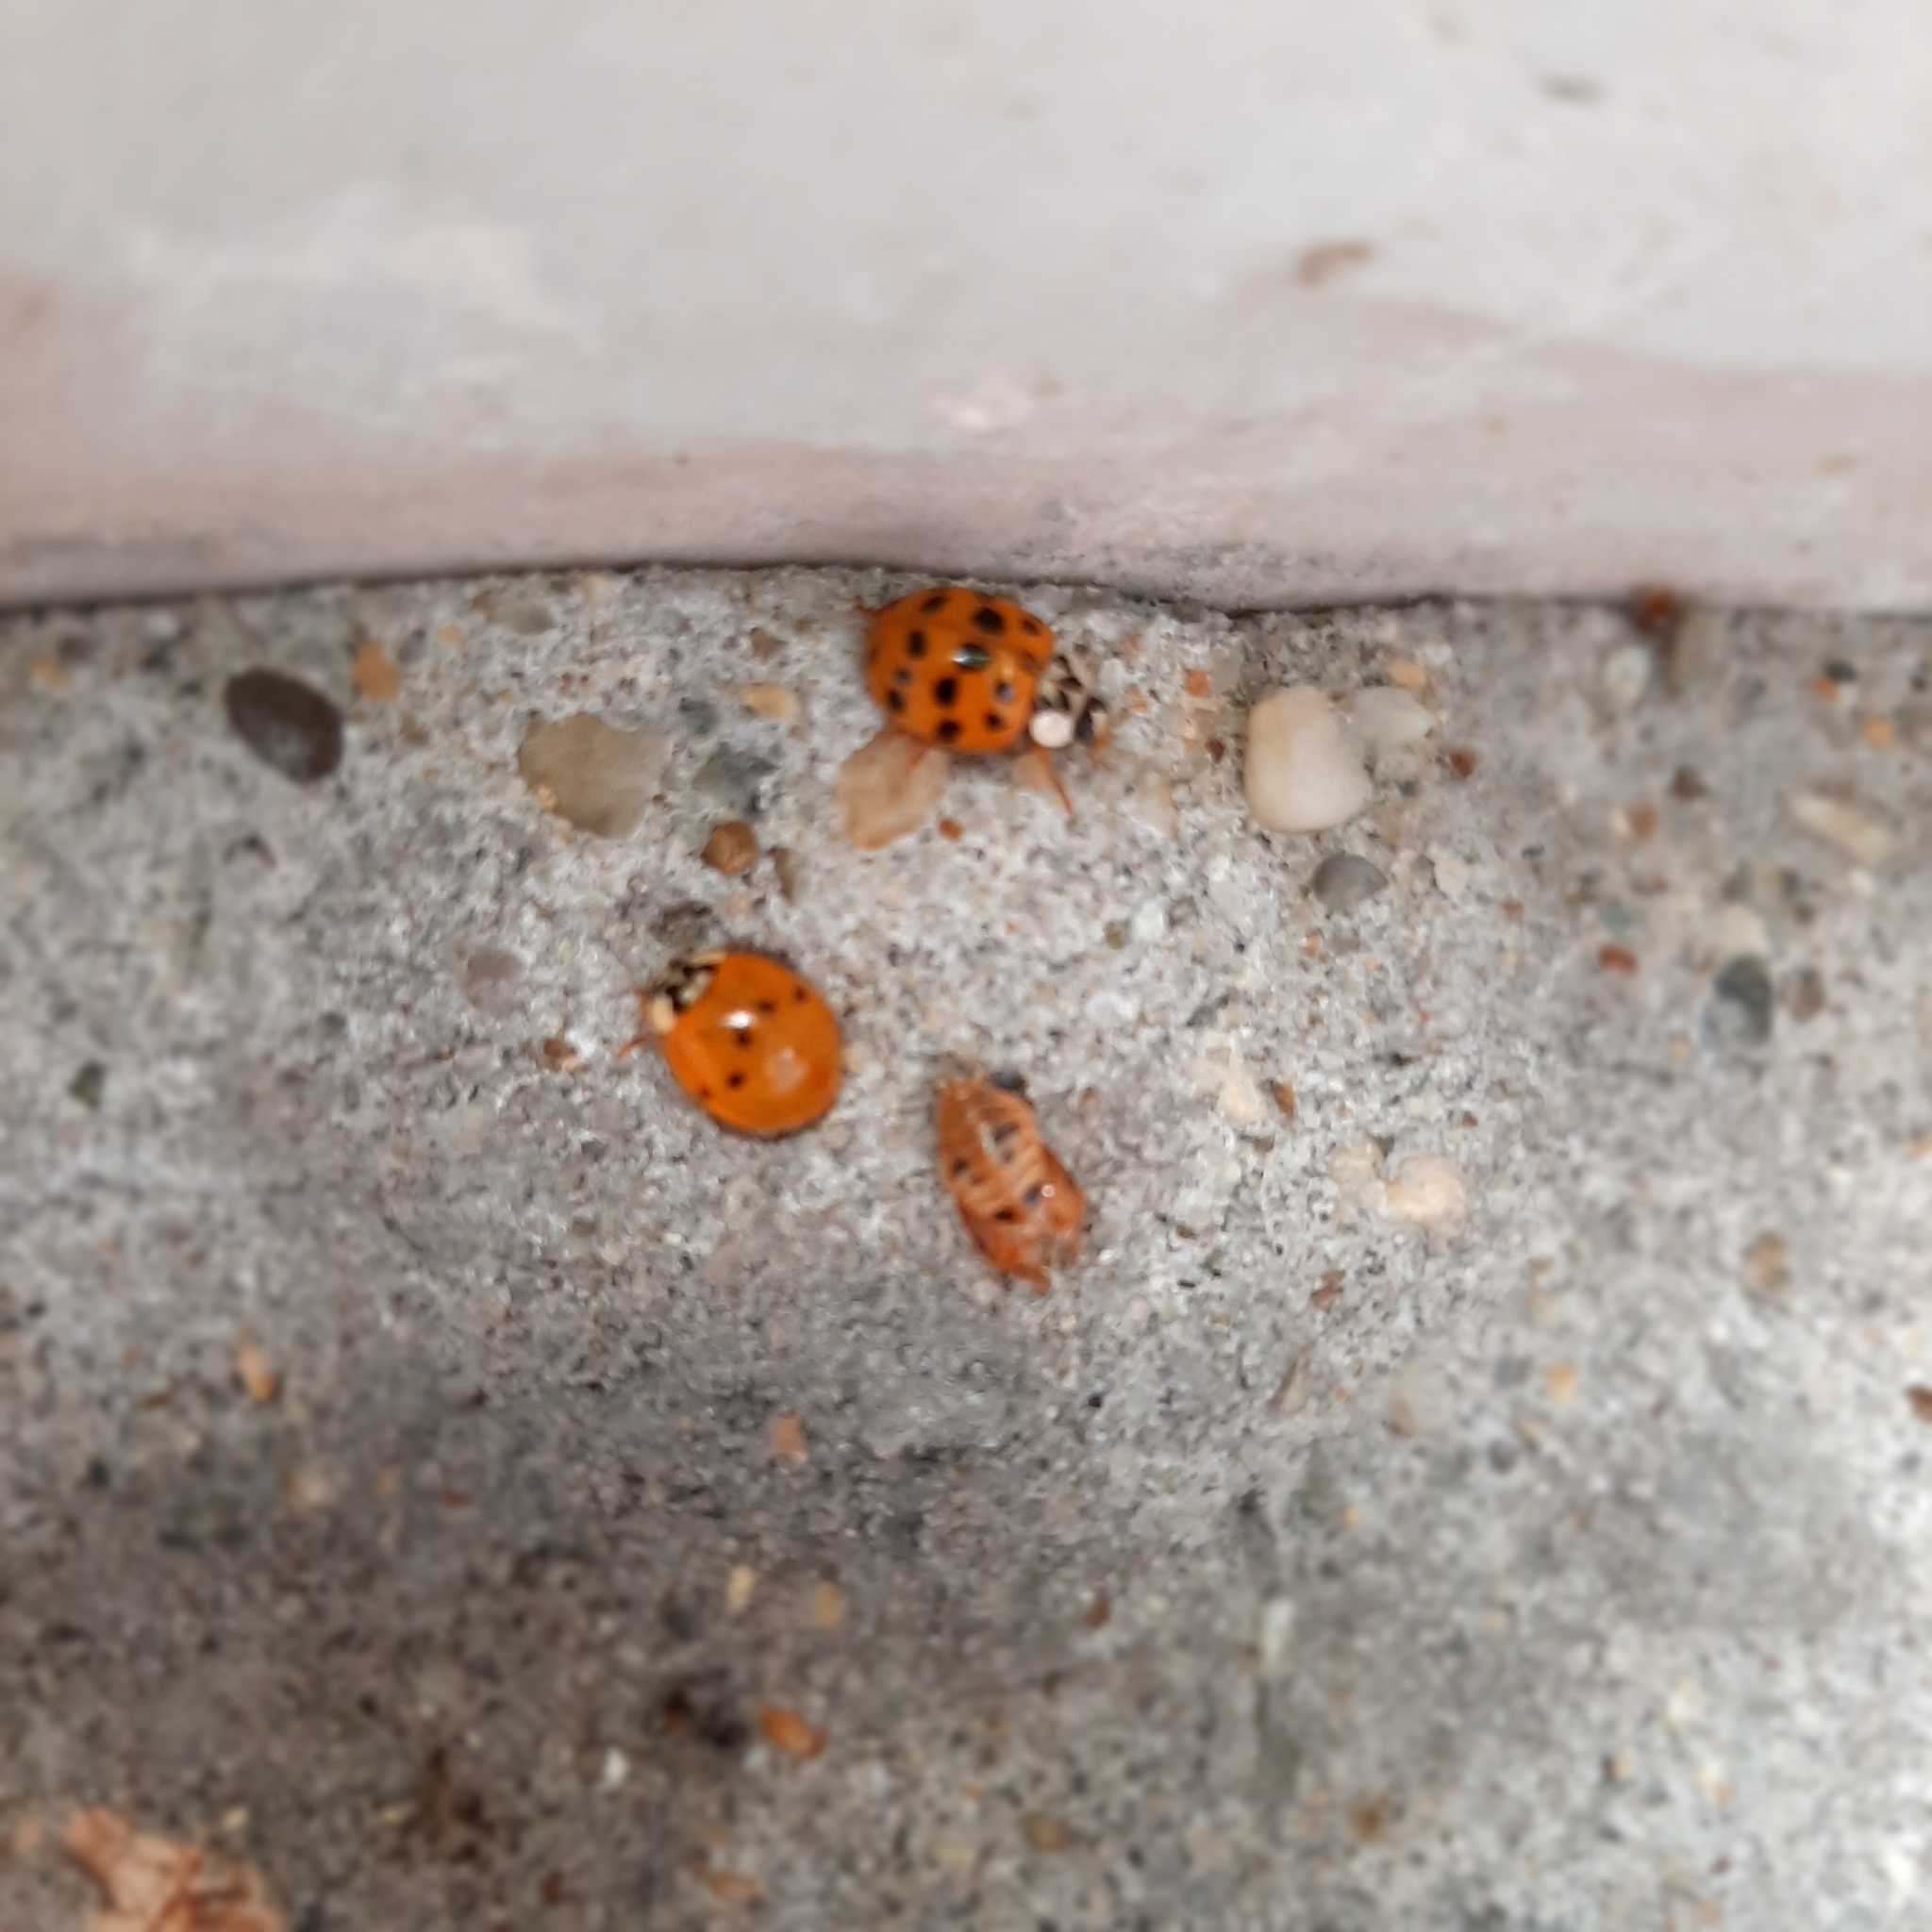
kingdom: Animalia
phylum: Arthropoda
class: Insecta
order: Coleoptera
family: Coccinellidae
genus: Harmonia
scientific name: Harmonia axyridis
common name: Harlequin ladybird
